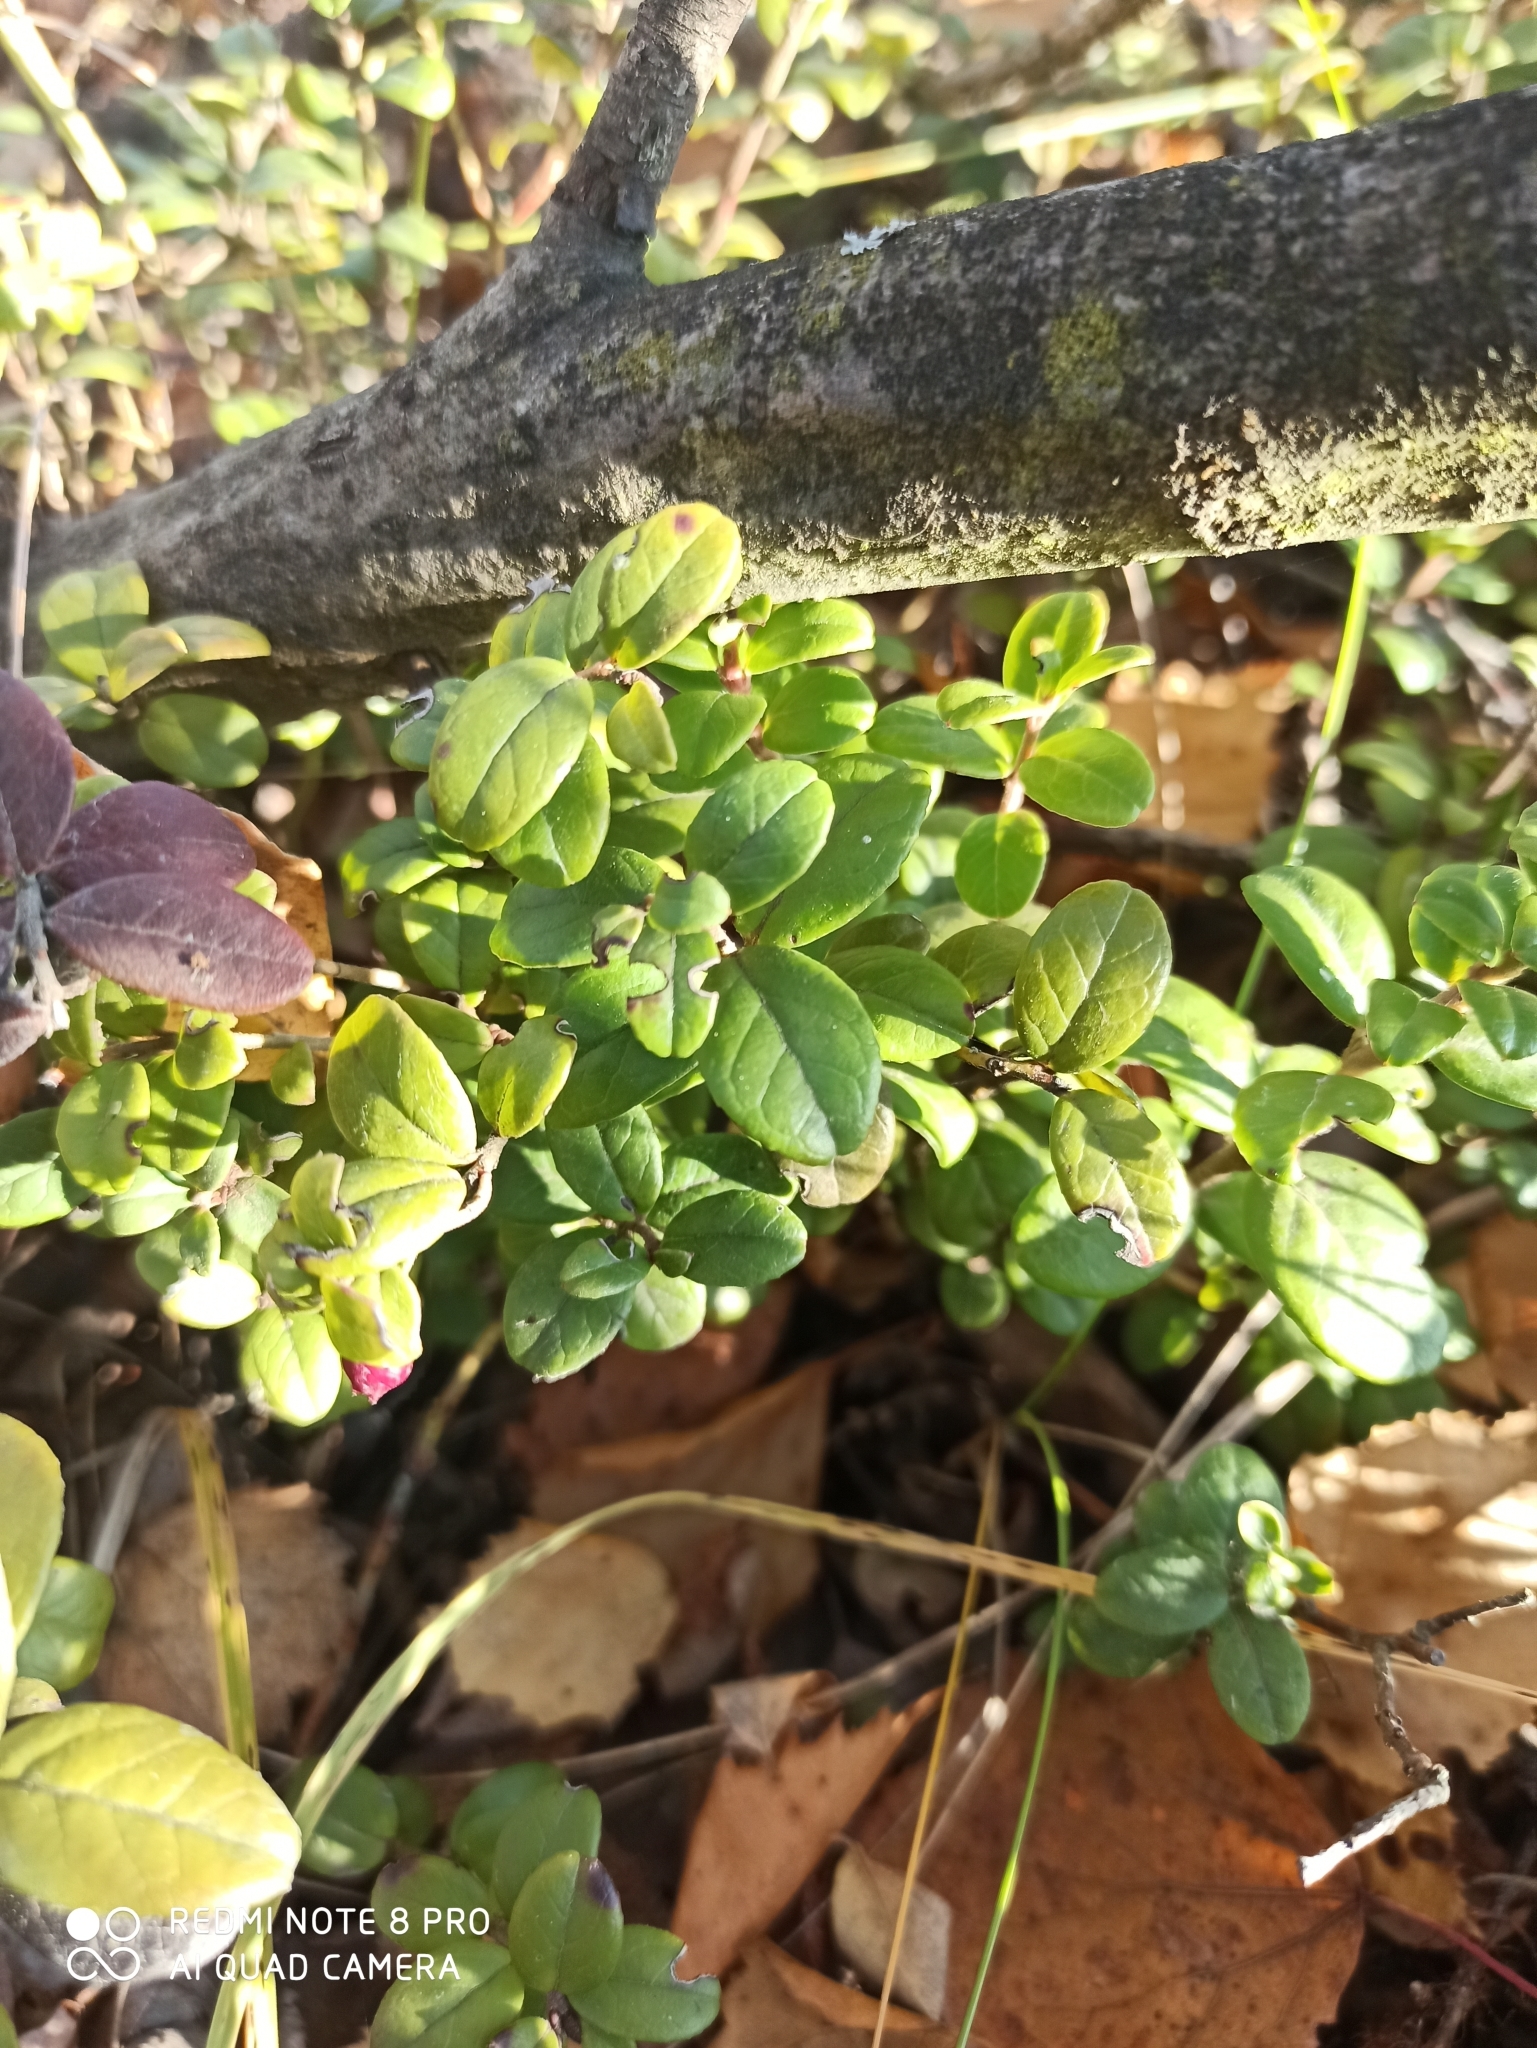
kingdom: Plantae
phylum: Tracheophyta
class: Magnoliopsida
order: Ericales
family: Ericaceae
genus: Vaccinium
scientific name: Vaccinium vitis-idaea
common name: Cowberry
